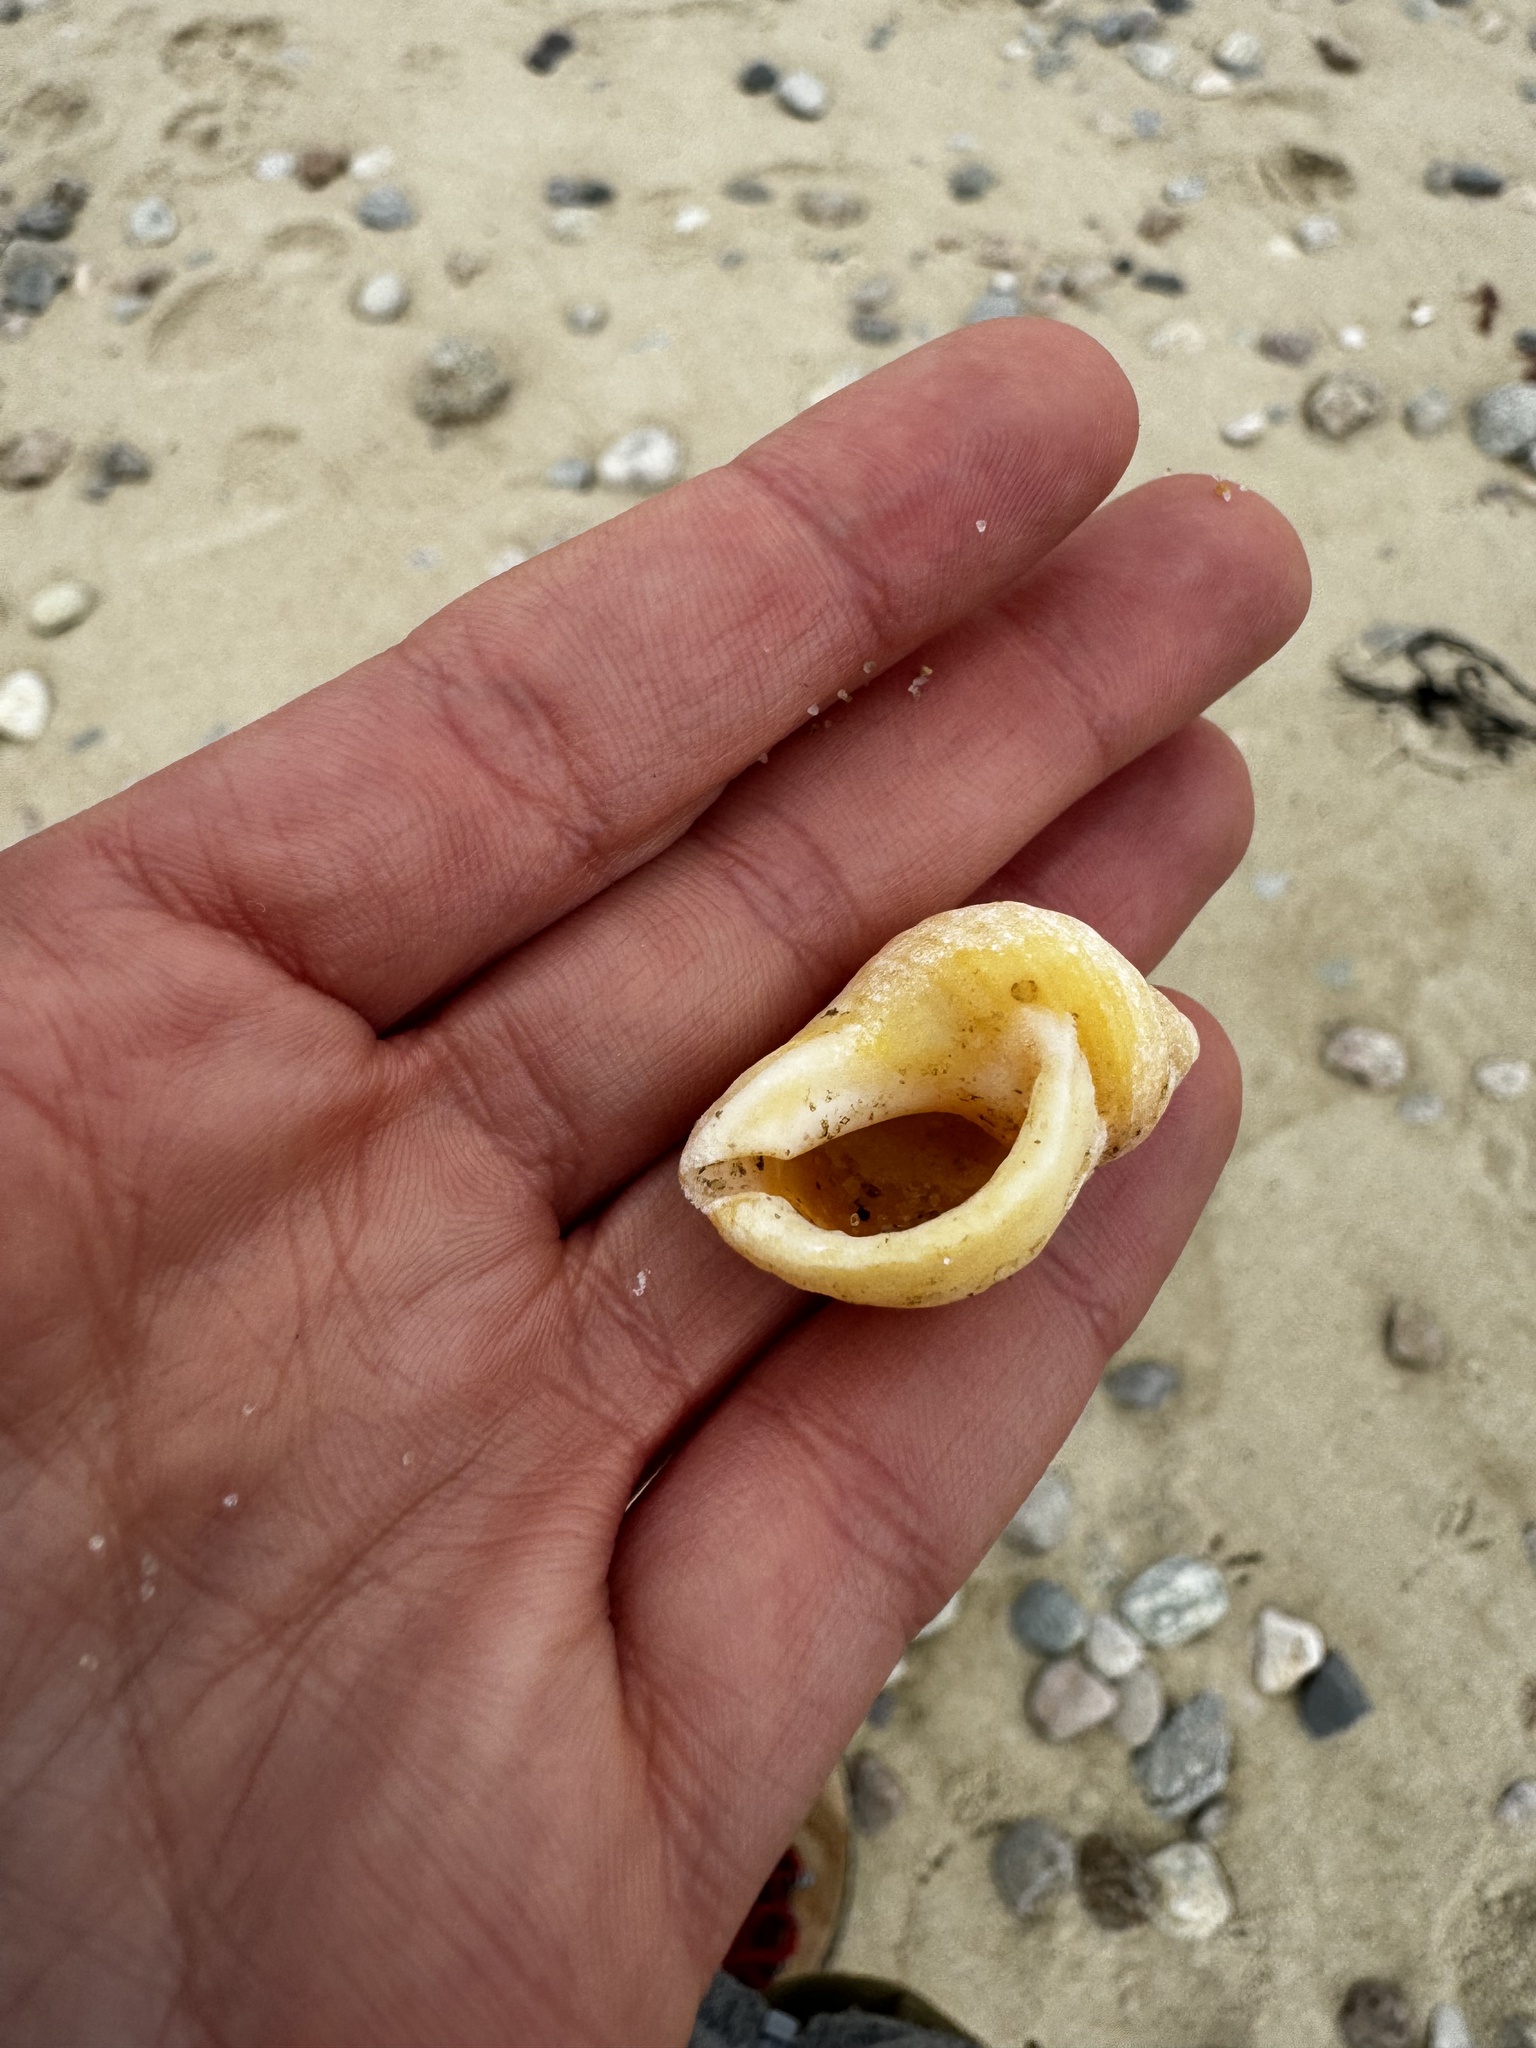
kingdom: Animalia
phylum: Mollusca
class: Gastropoda
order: Neogastropoda
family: Muricidae
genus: Nucella
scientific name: Nucella lapillus
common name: Dog whelk
